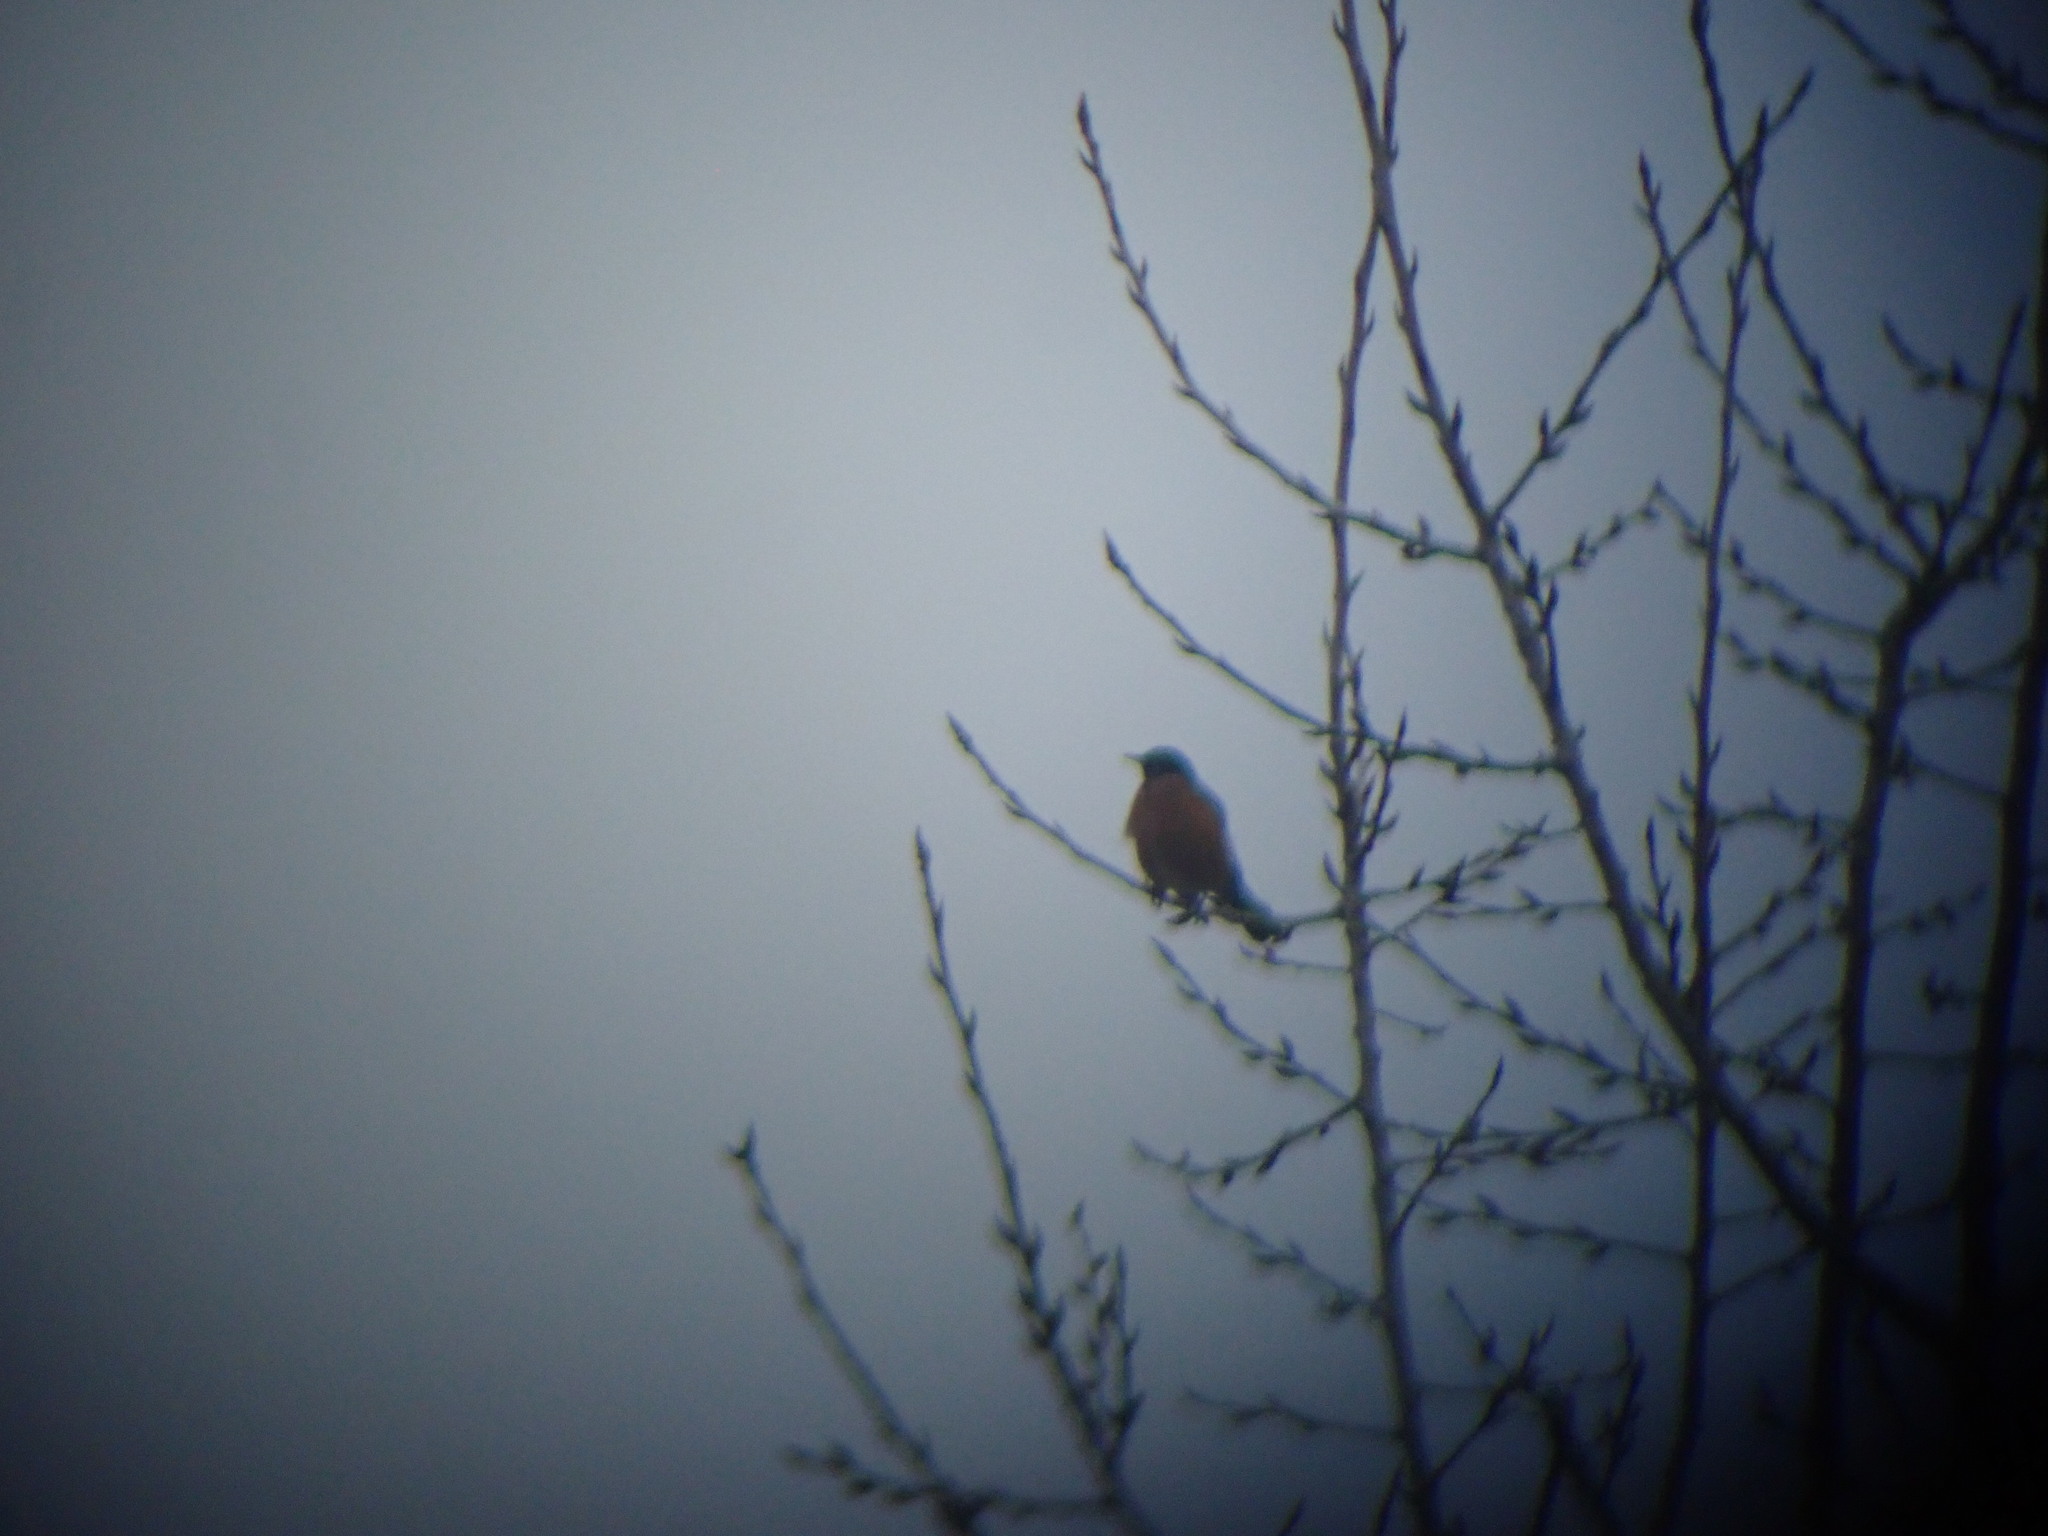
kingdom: Animalia
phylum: Chordata
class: Aves
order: Passeriformes
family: Turdidae
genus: Turdus
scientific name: Turdus migratorius
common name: American robin
